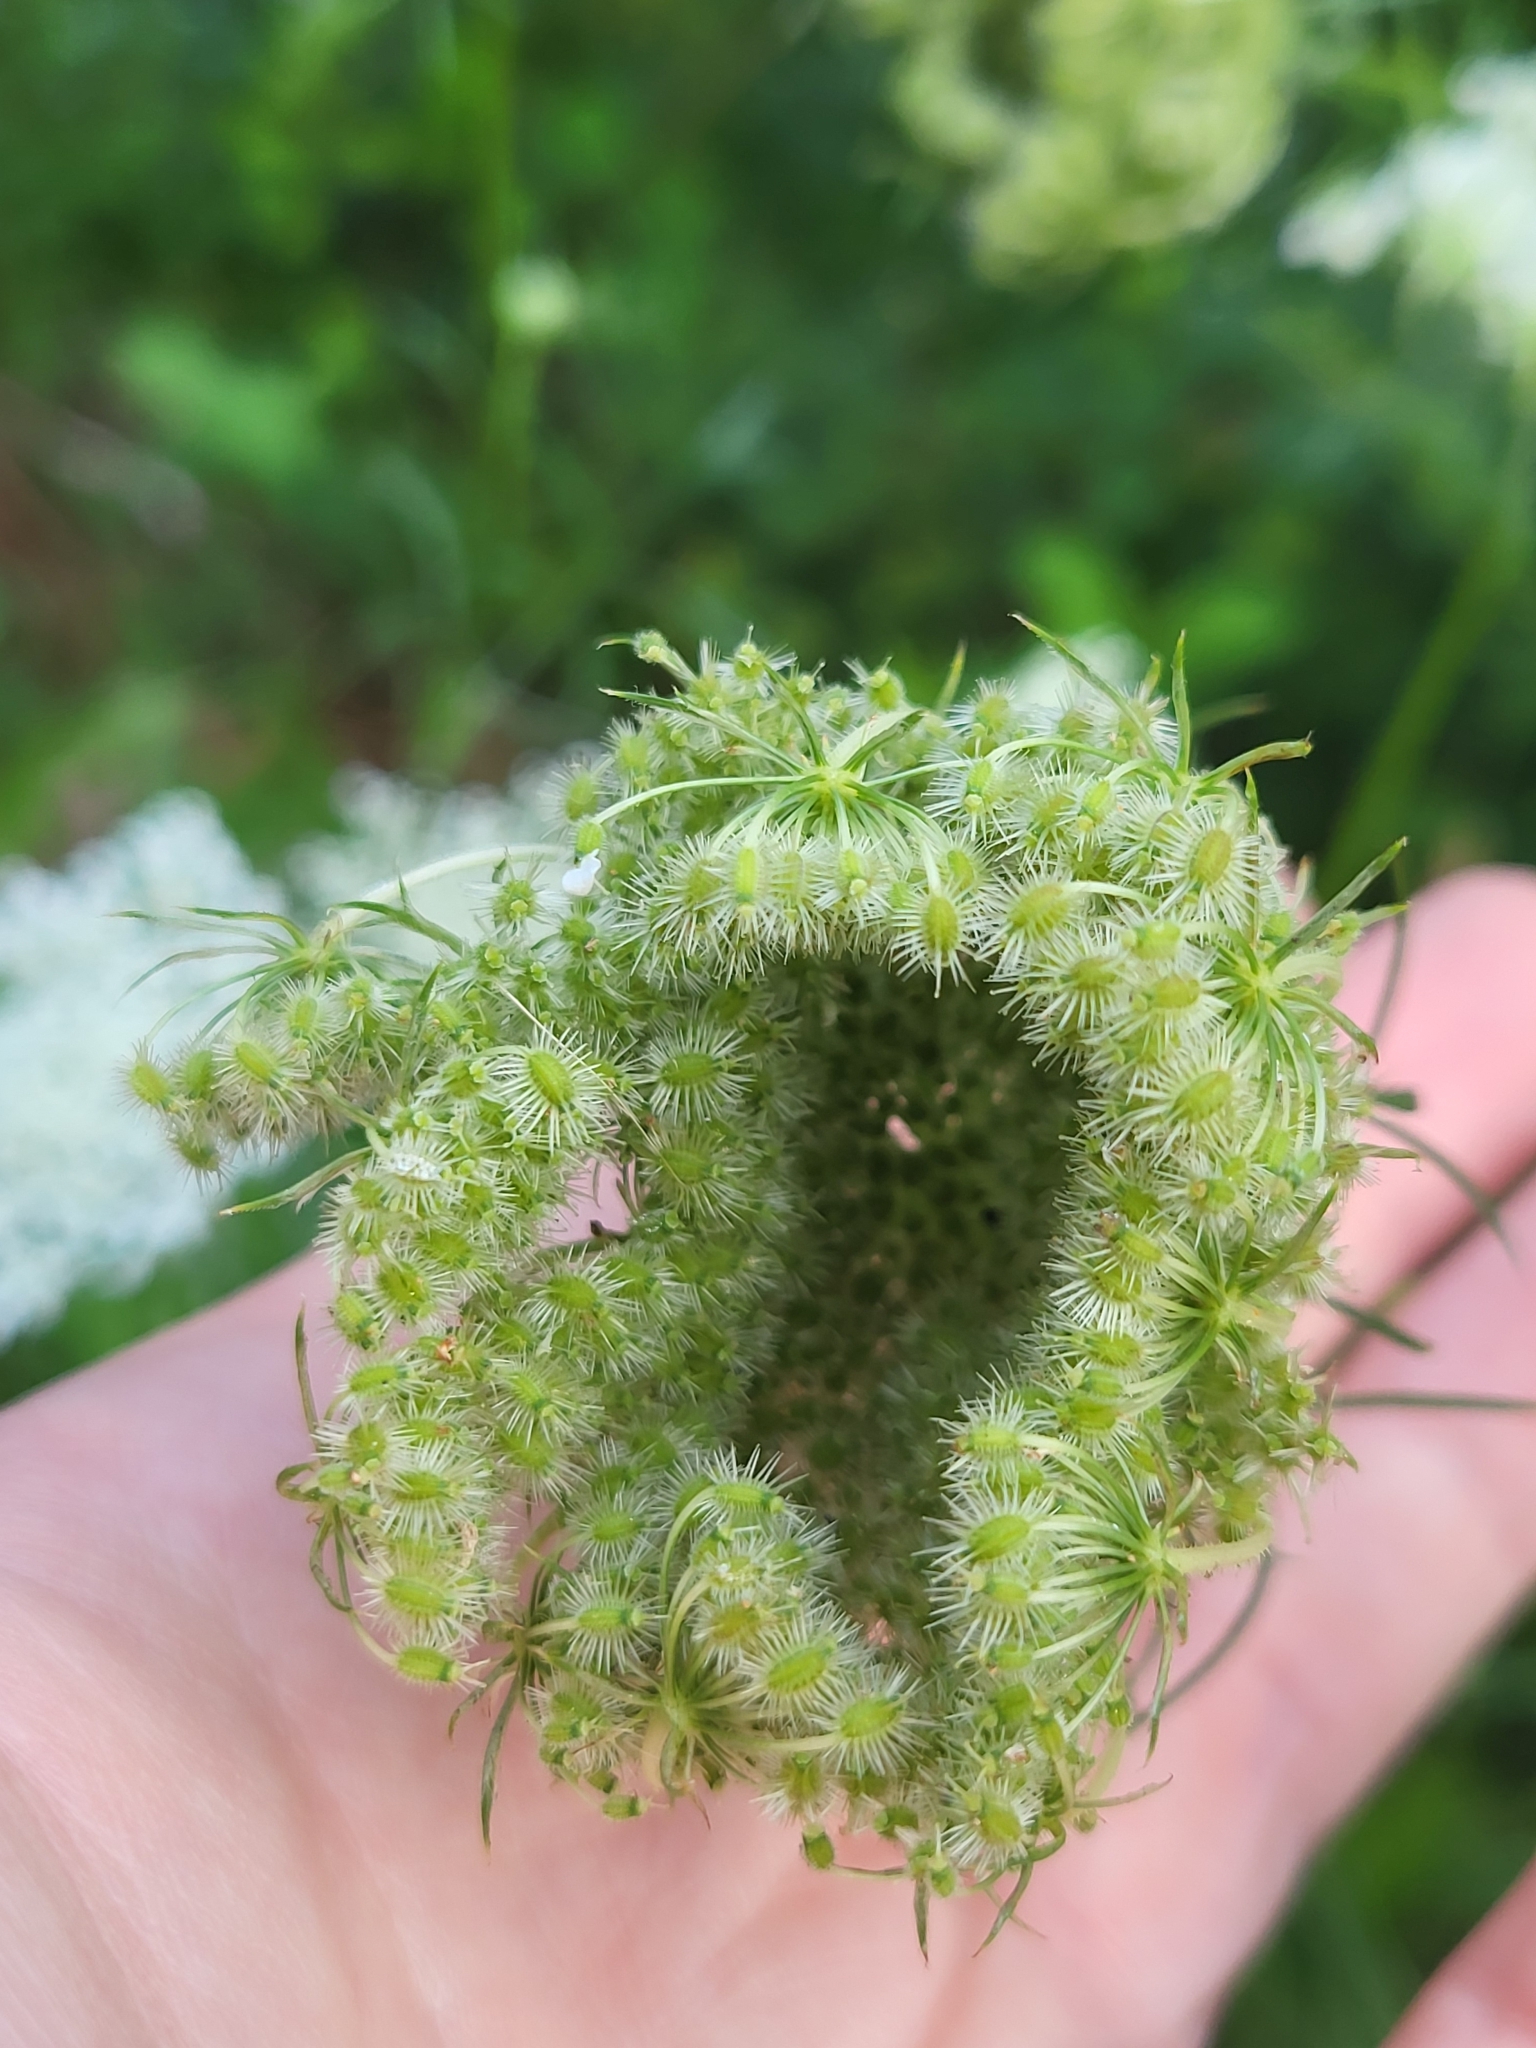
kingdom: Plantae
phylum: Tracheophyta
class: Magnoliopsida
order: Apiales
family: Apiaceae
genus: Daucus
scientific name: Daucus carota
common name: Wild carrot
